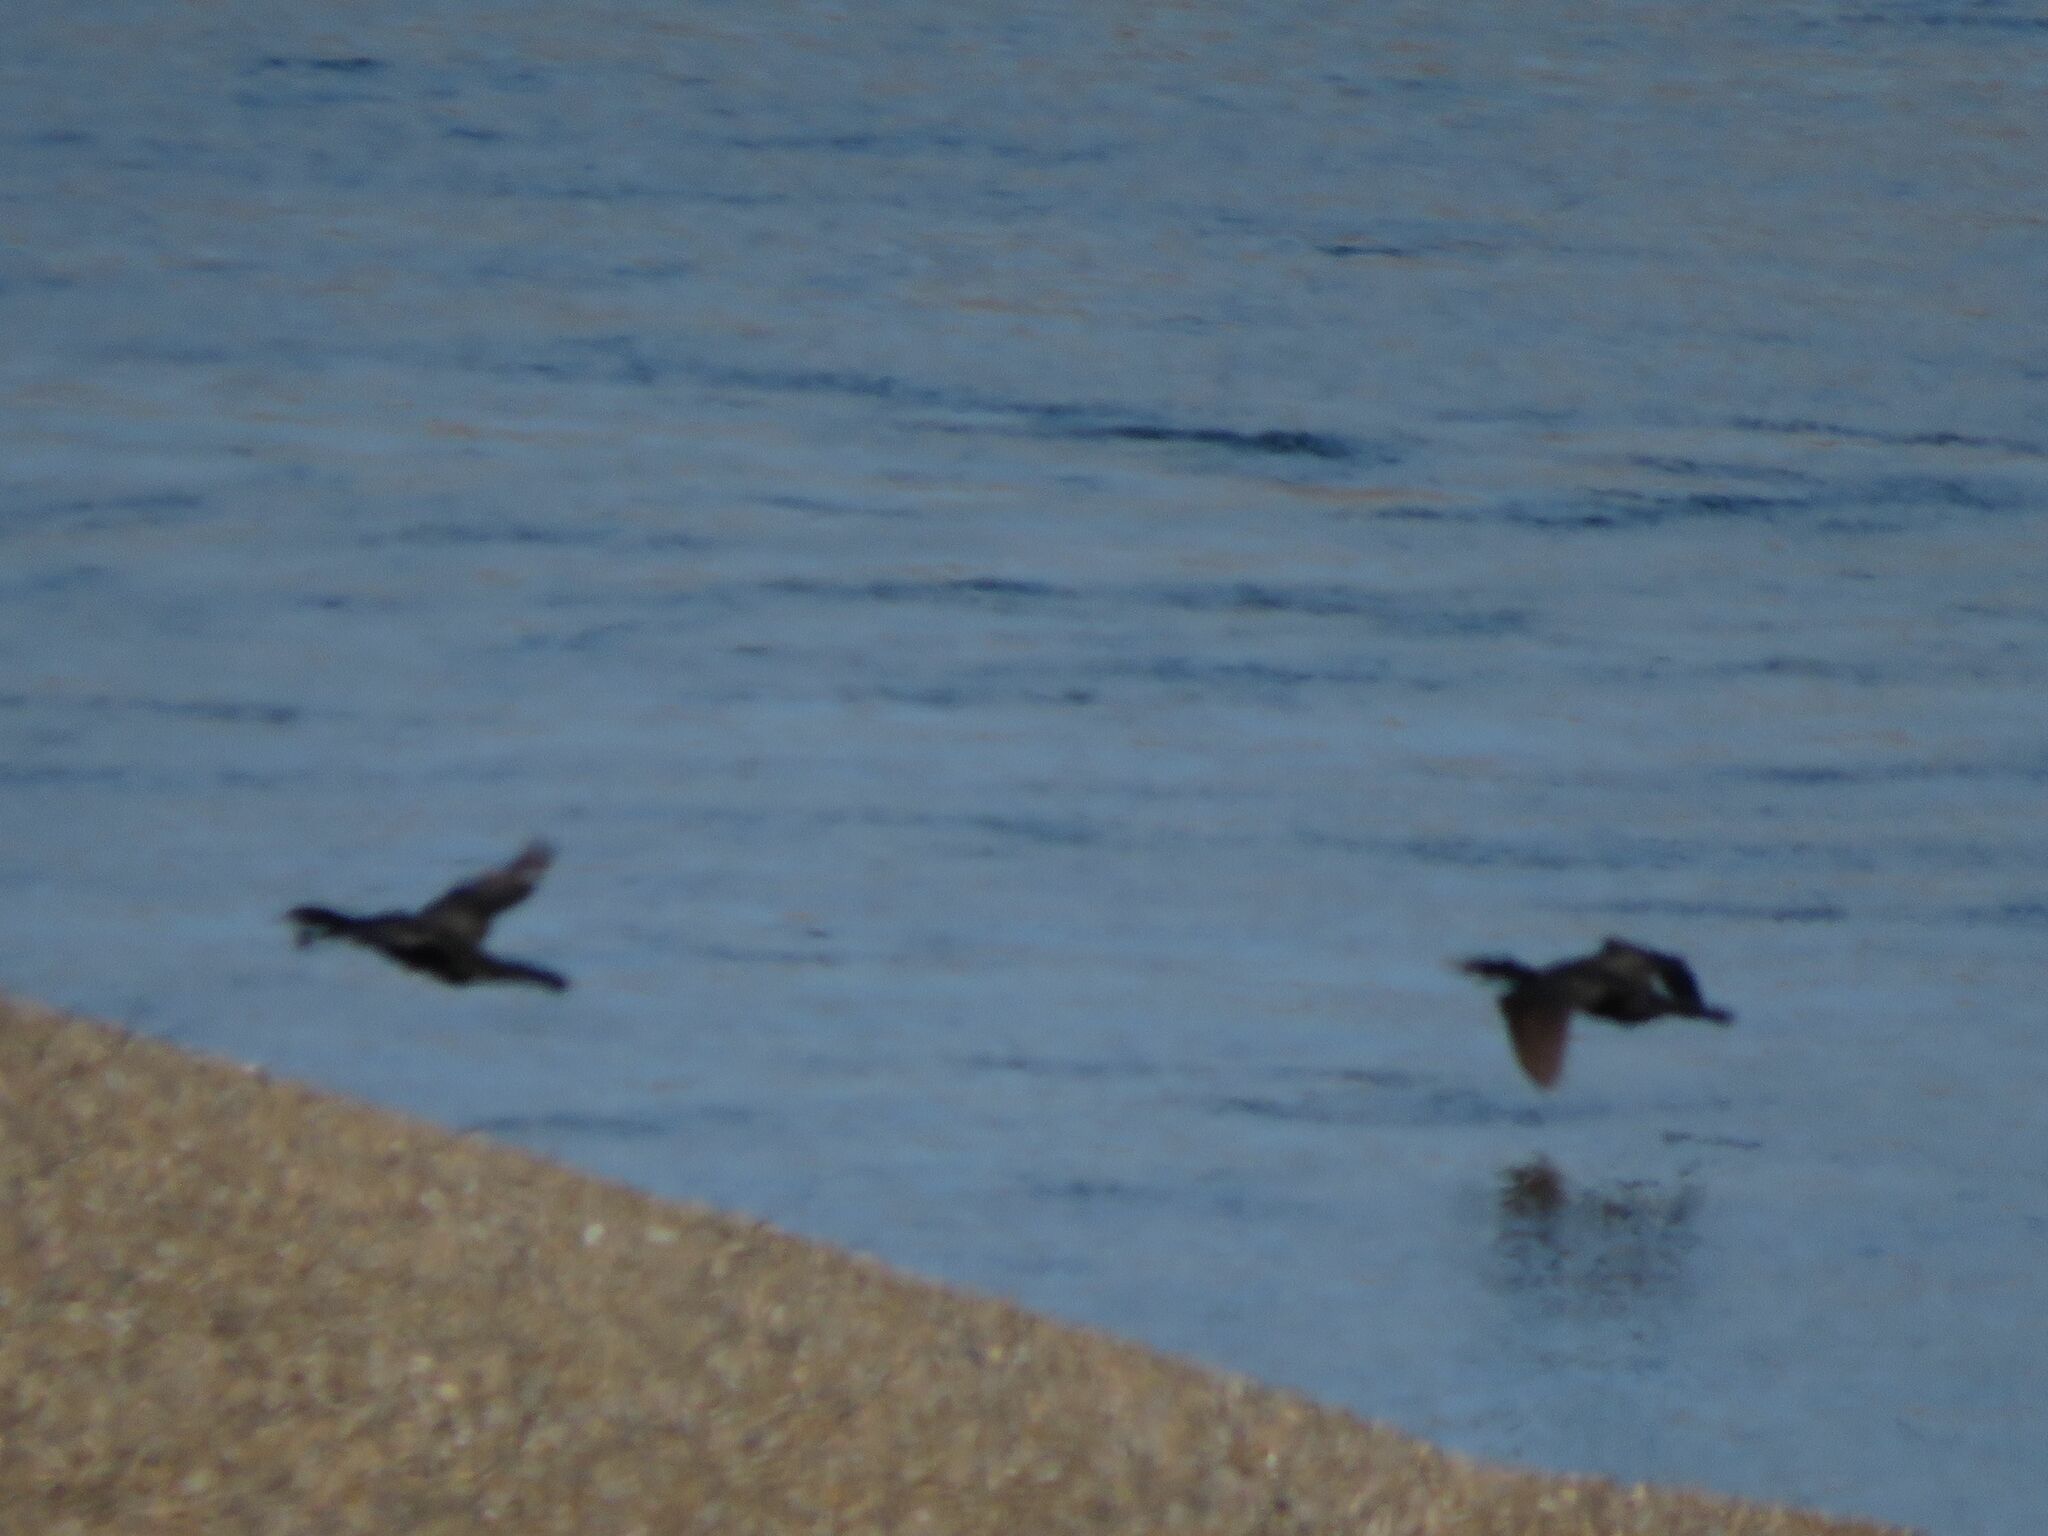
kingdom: Animalia
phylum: Chordata
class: Aves
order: Suliformes
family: Phalacrocoracidae
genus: Phalacrocorax
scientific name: Phalacrocorax brasilianus
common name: Neotropic cormorant
